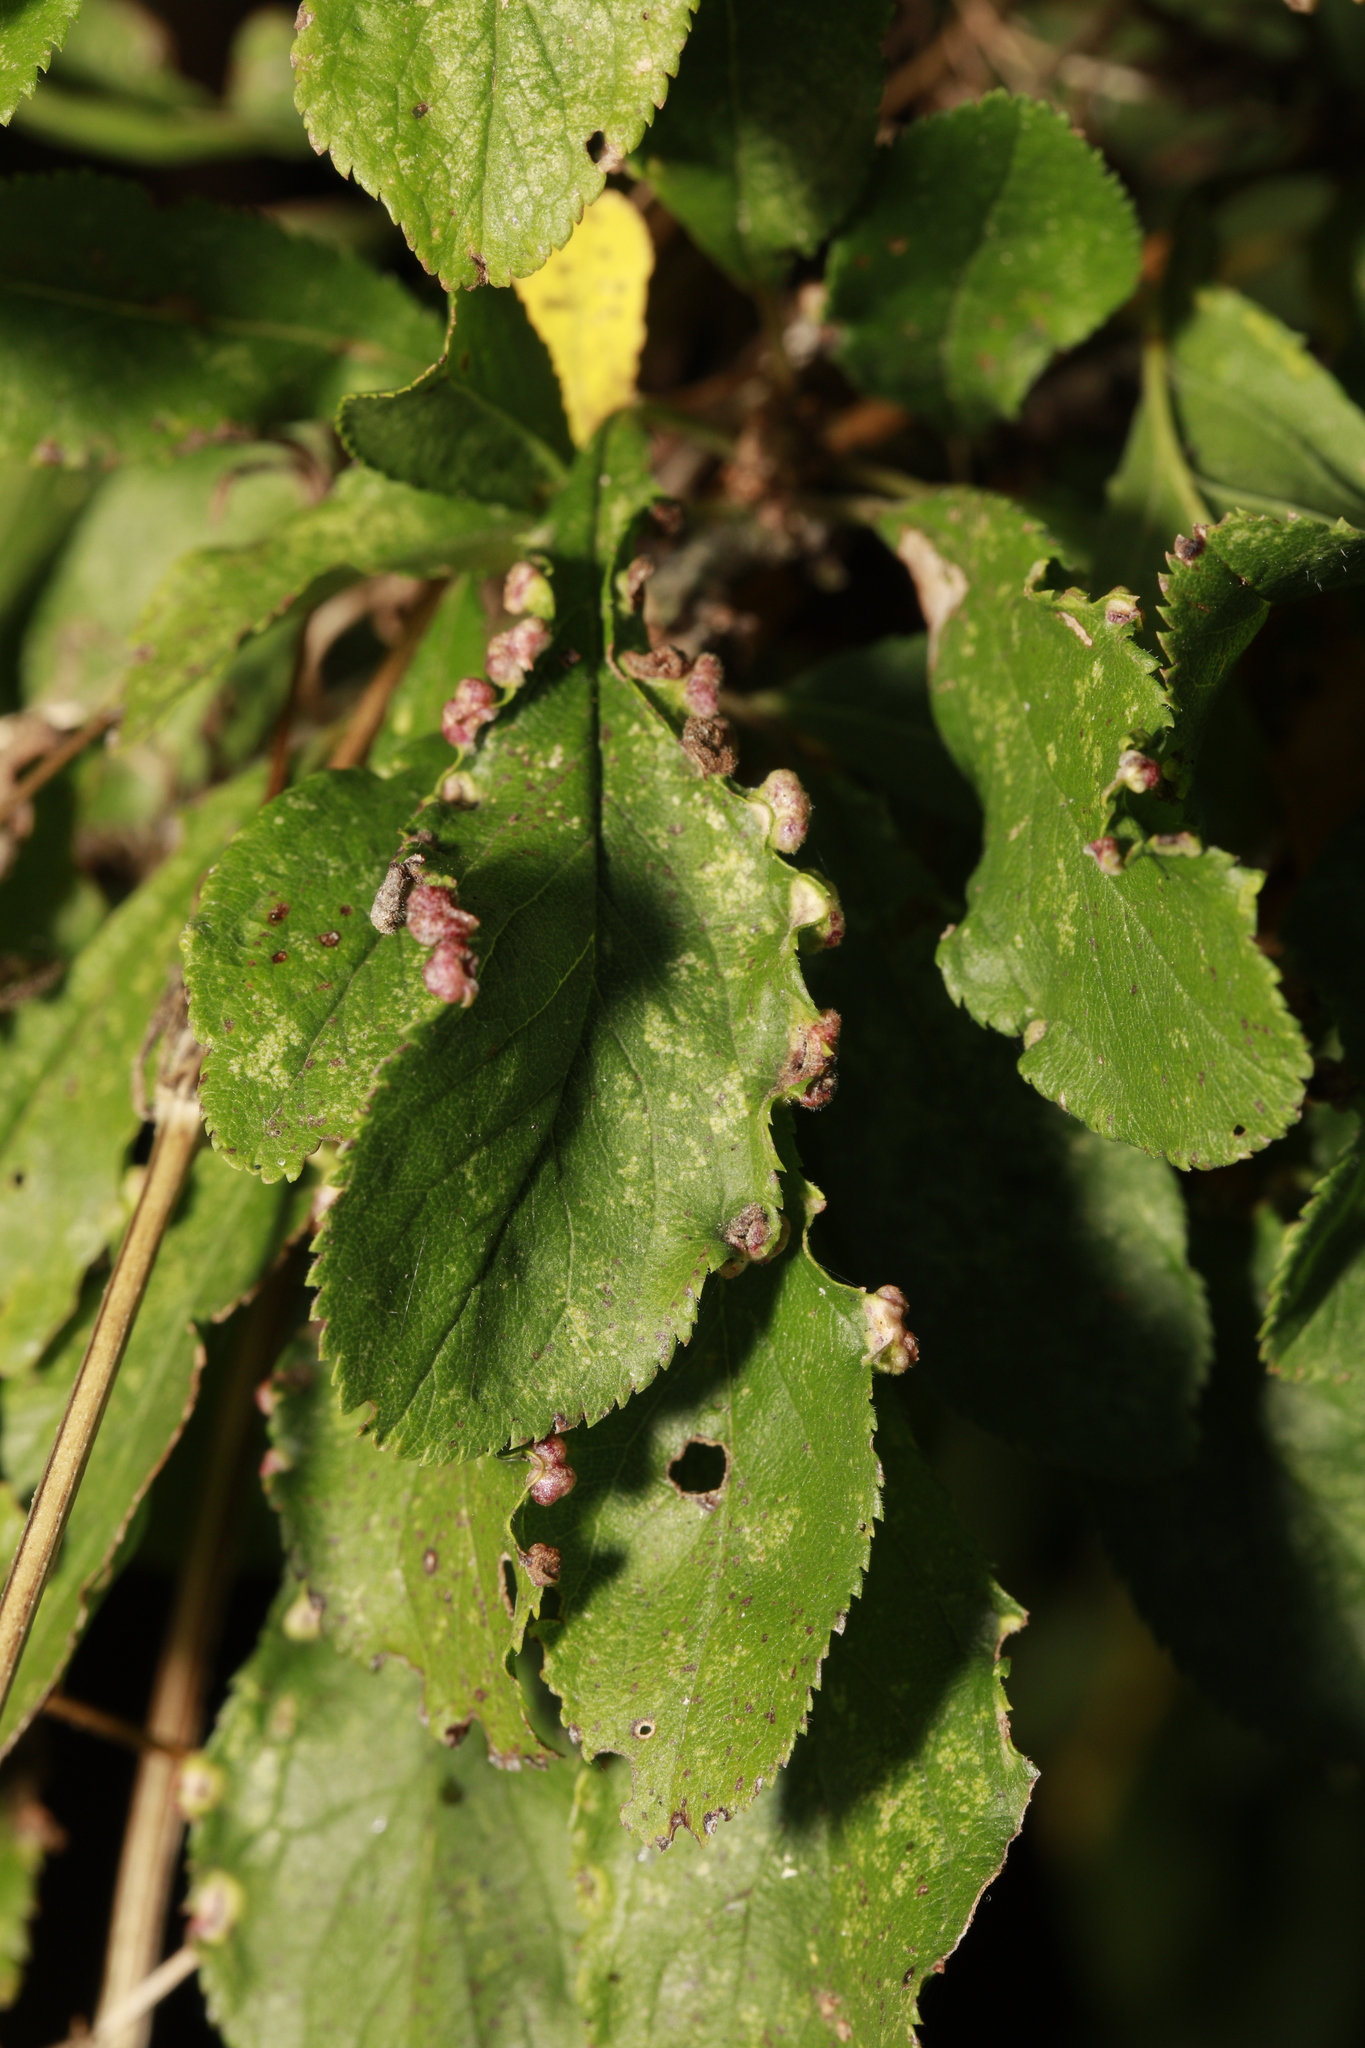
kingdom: Animalia
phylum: Arthropoda
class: Arachnida
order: Trombidiformes
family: Eriophyidae
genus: Eriophyes
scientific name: Eriophyes similis
